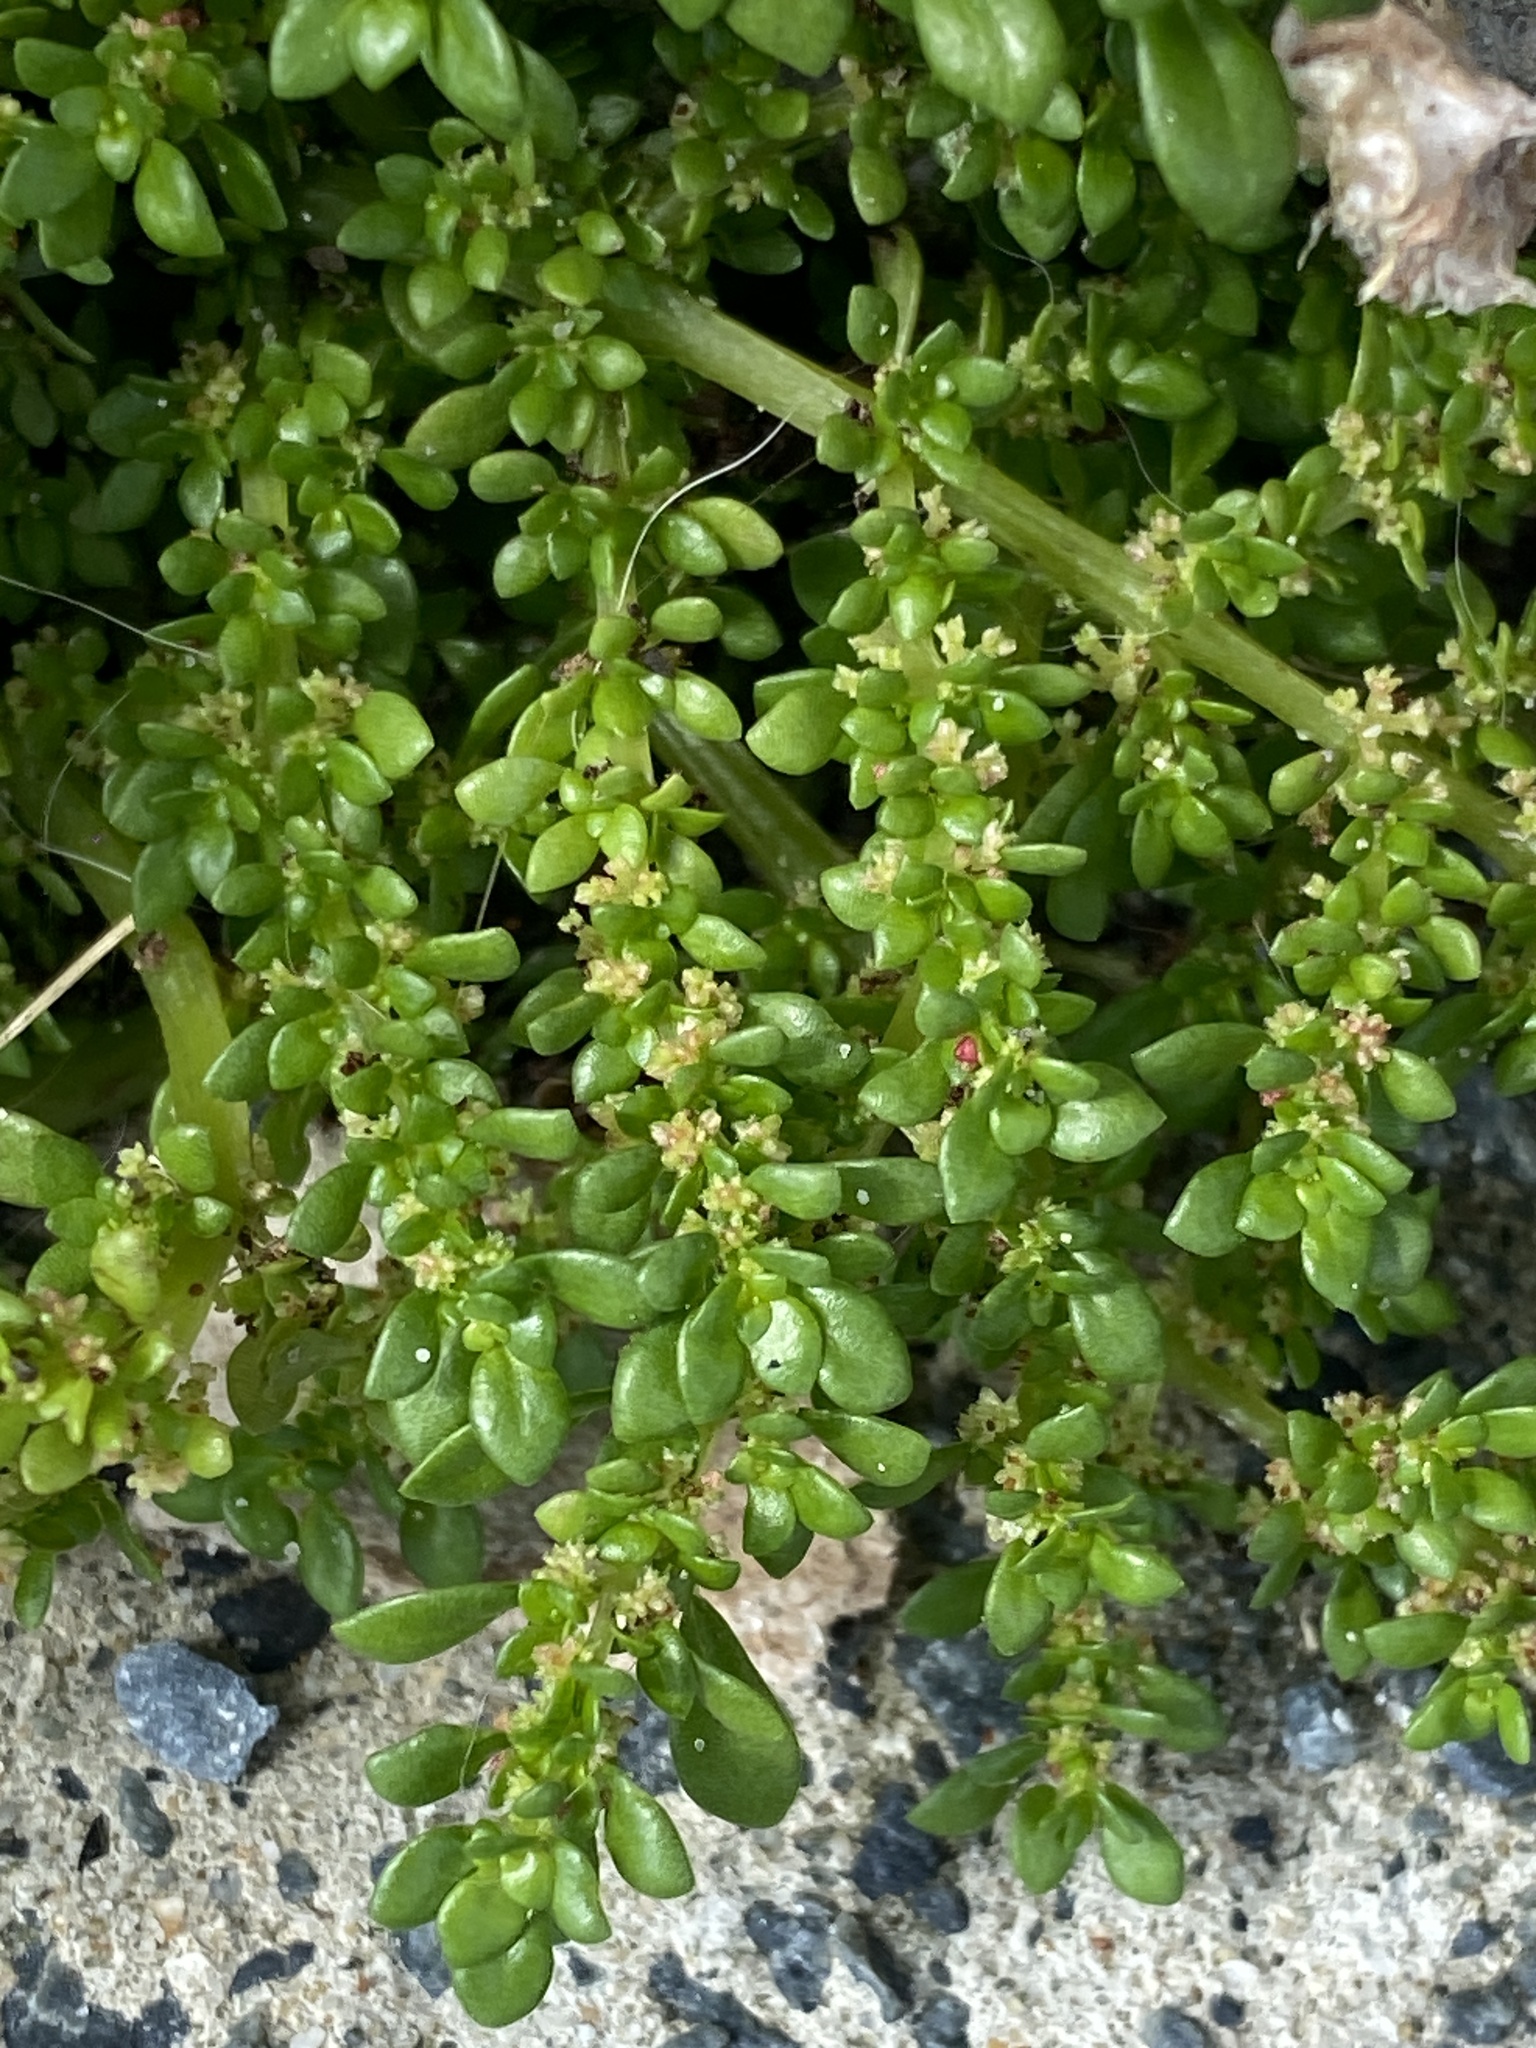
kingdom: Plantae
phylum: Tracheophyta
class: Magnoliopsida
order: Rosales
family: Urticaceae
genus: Pilea
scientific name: Pilea microphylla
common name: Artillery-plant
